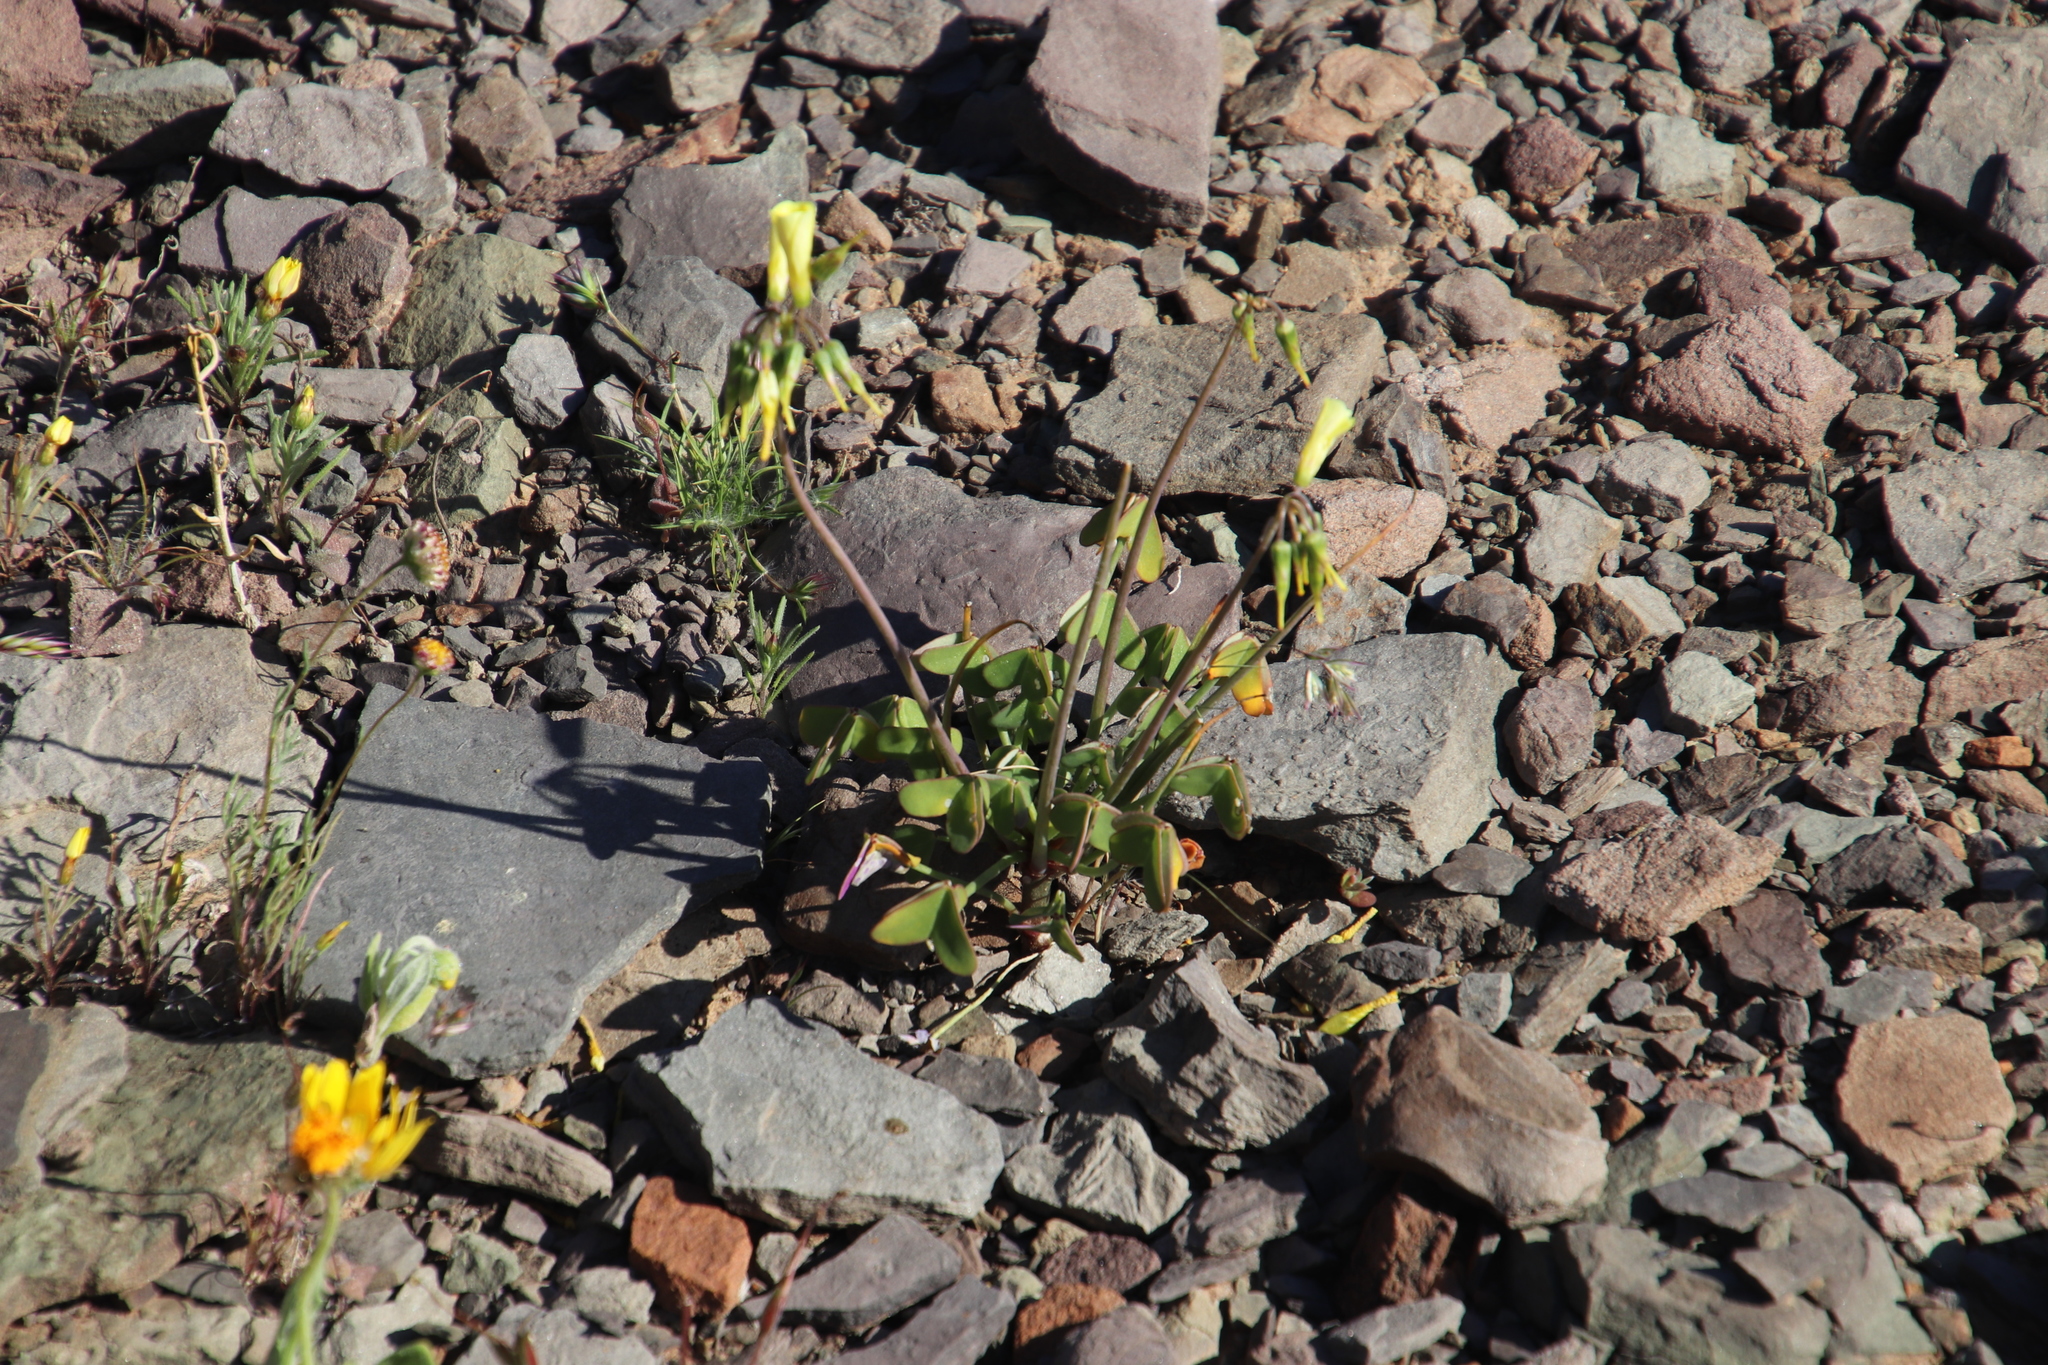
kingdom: Plantae
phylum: Tracheophyta
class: Magnoliopsida
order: Oxalidales
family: Oxalidaceae
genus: Oxalis
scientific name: Oxalis pes-caprae
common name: Bermuda-buttercup
